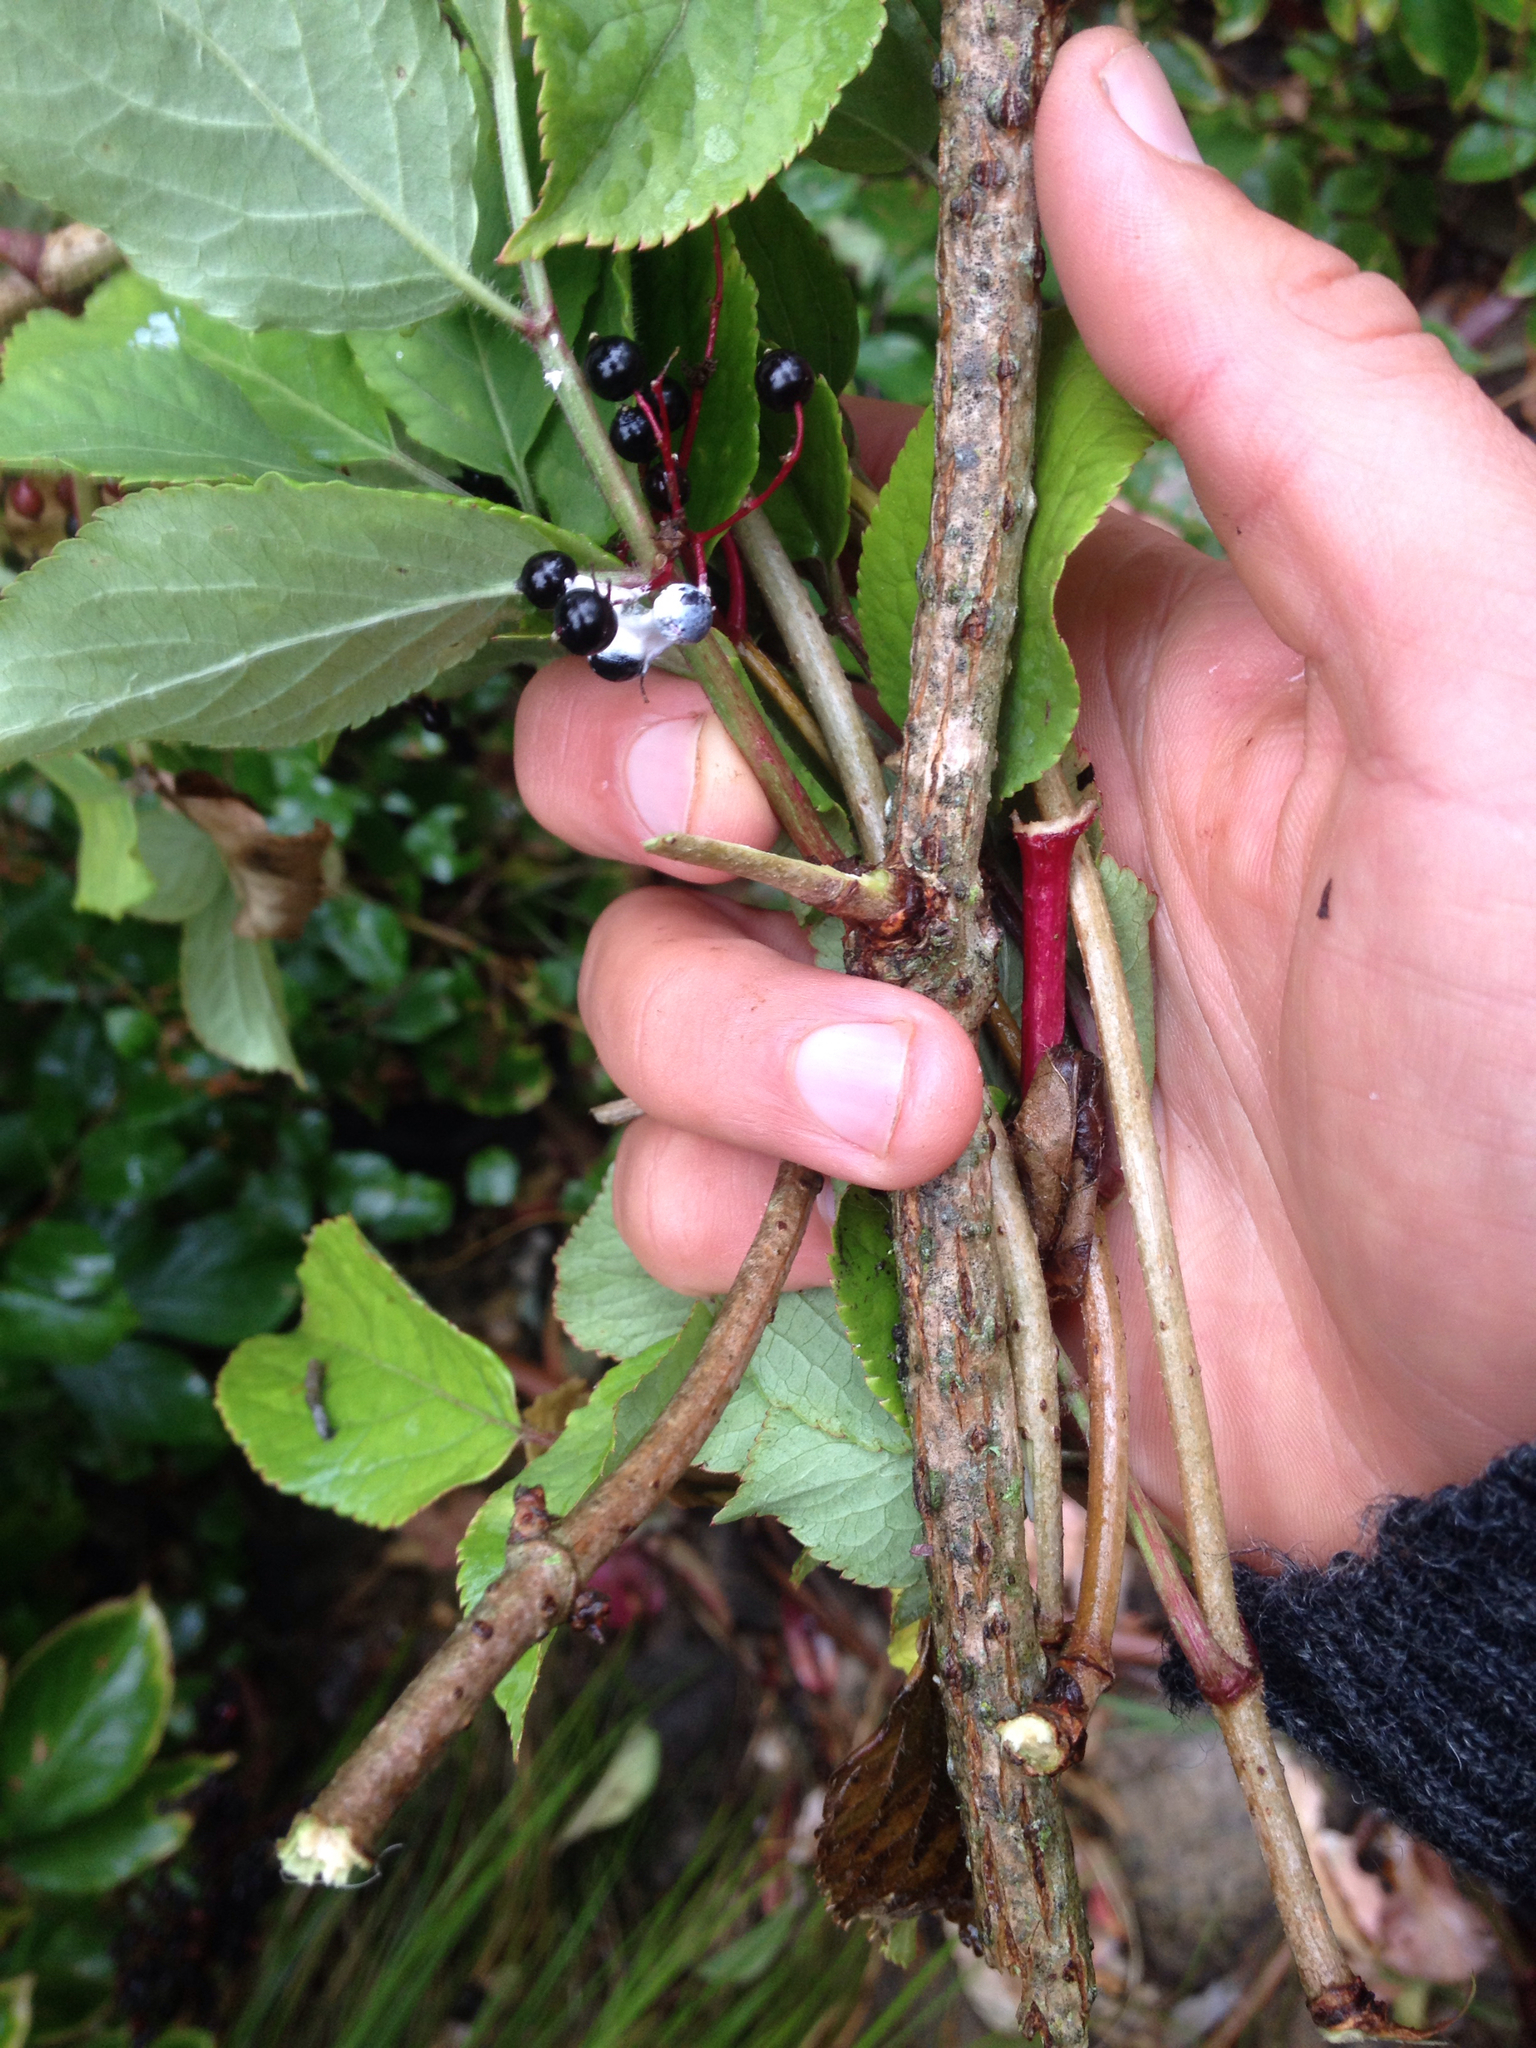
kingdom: Plantae
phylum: Tracheophyta
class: Magnoliopsida
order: Dipsacales
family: Viburnaceae
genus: Sambucus
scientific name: Sambucus nigra
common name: Elder
